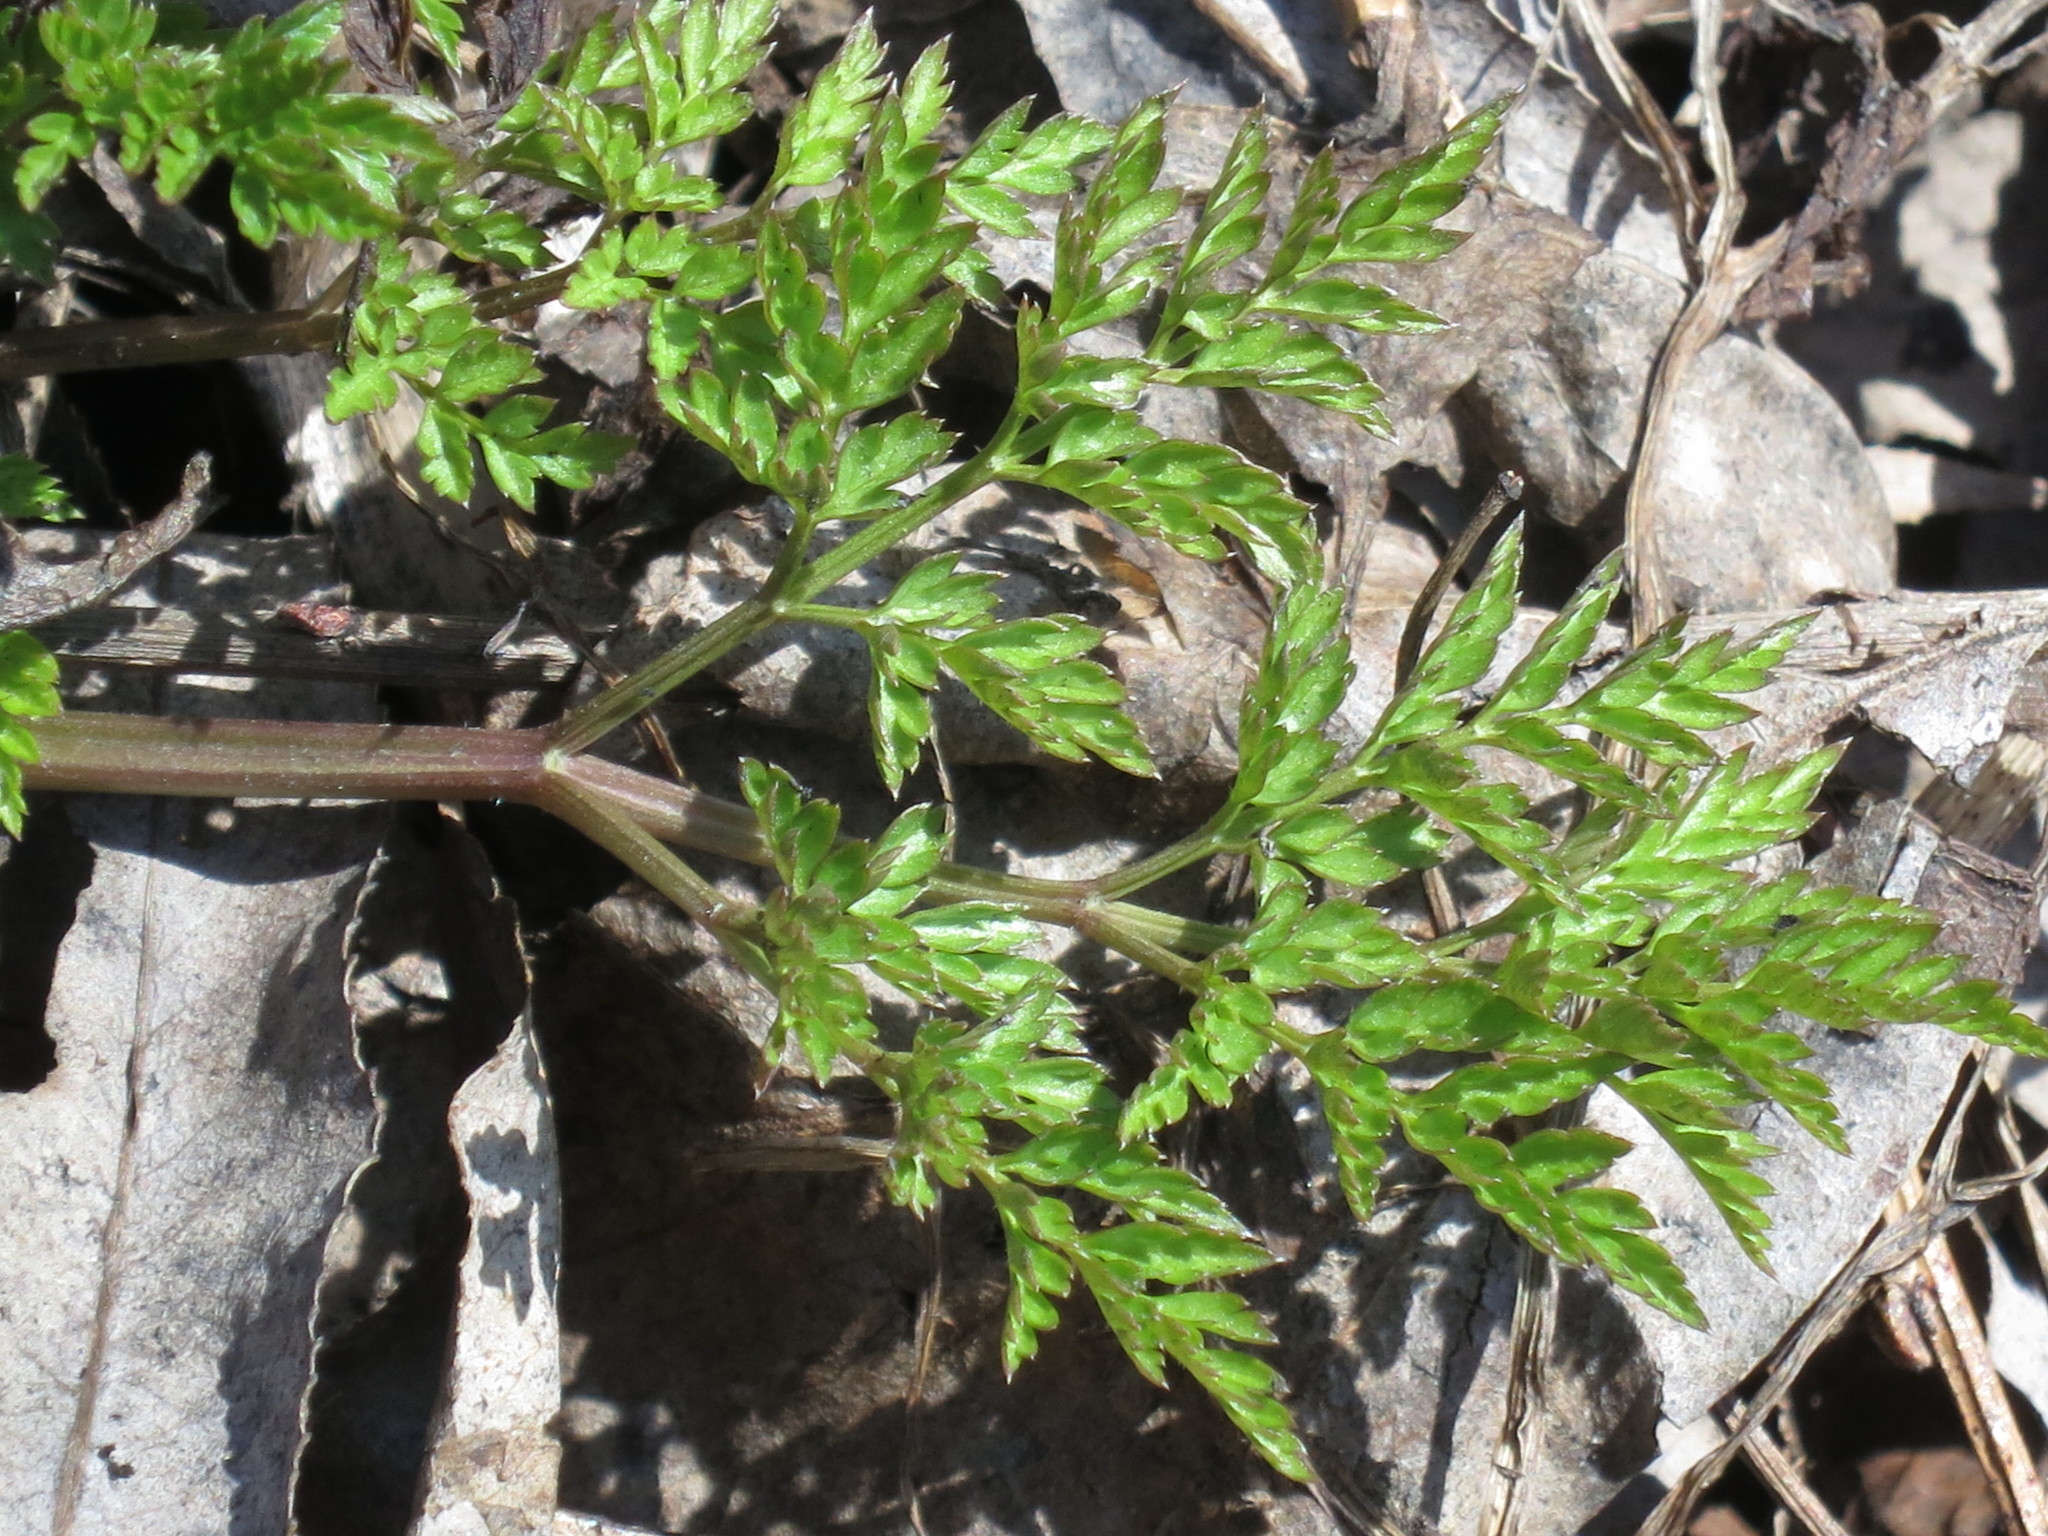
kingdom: Plantae
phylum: Tracheophyta
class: Magnoliopsida
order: Apiales
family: Apiaceae
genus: Anthriscus
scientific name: Anthriscus sylvestris
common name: Cow parsley
